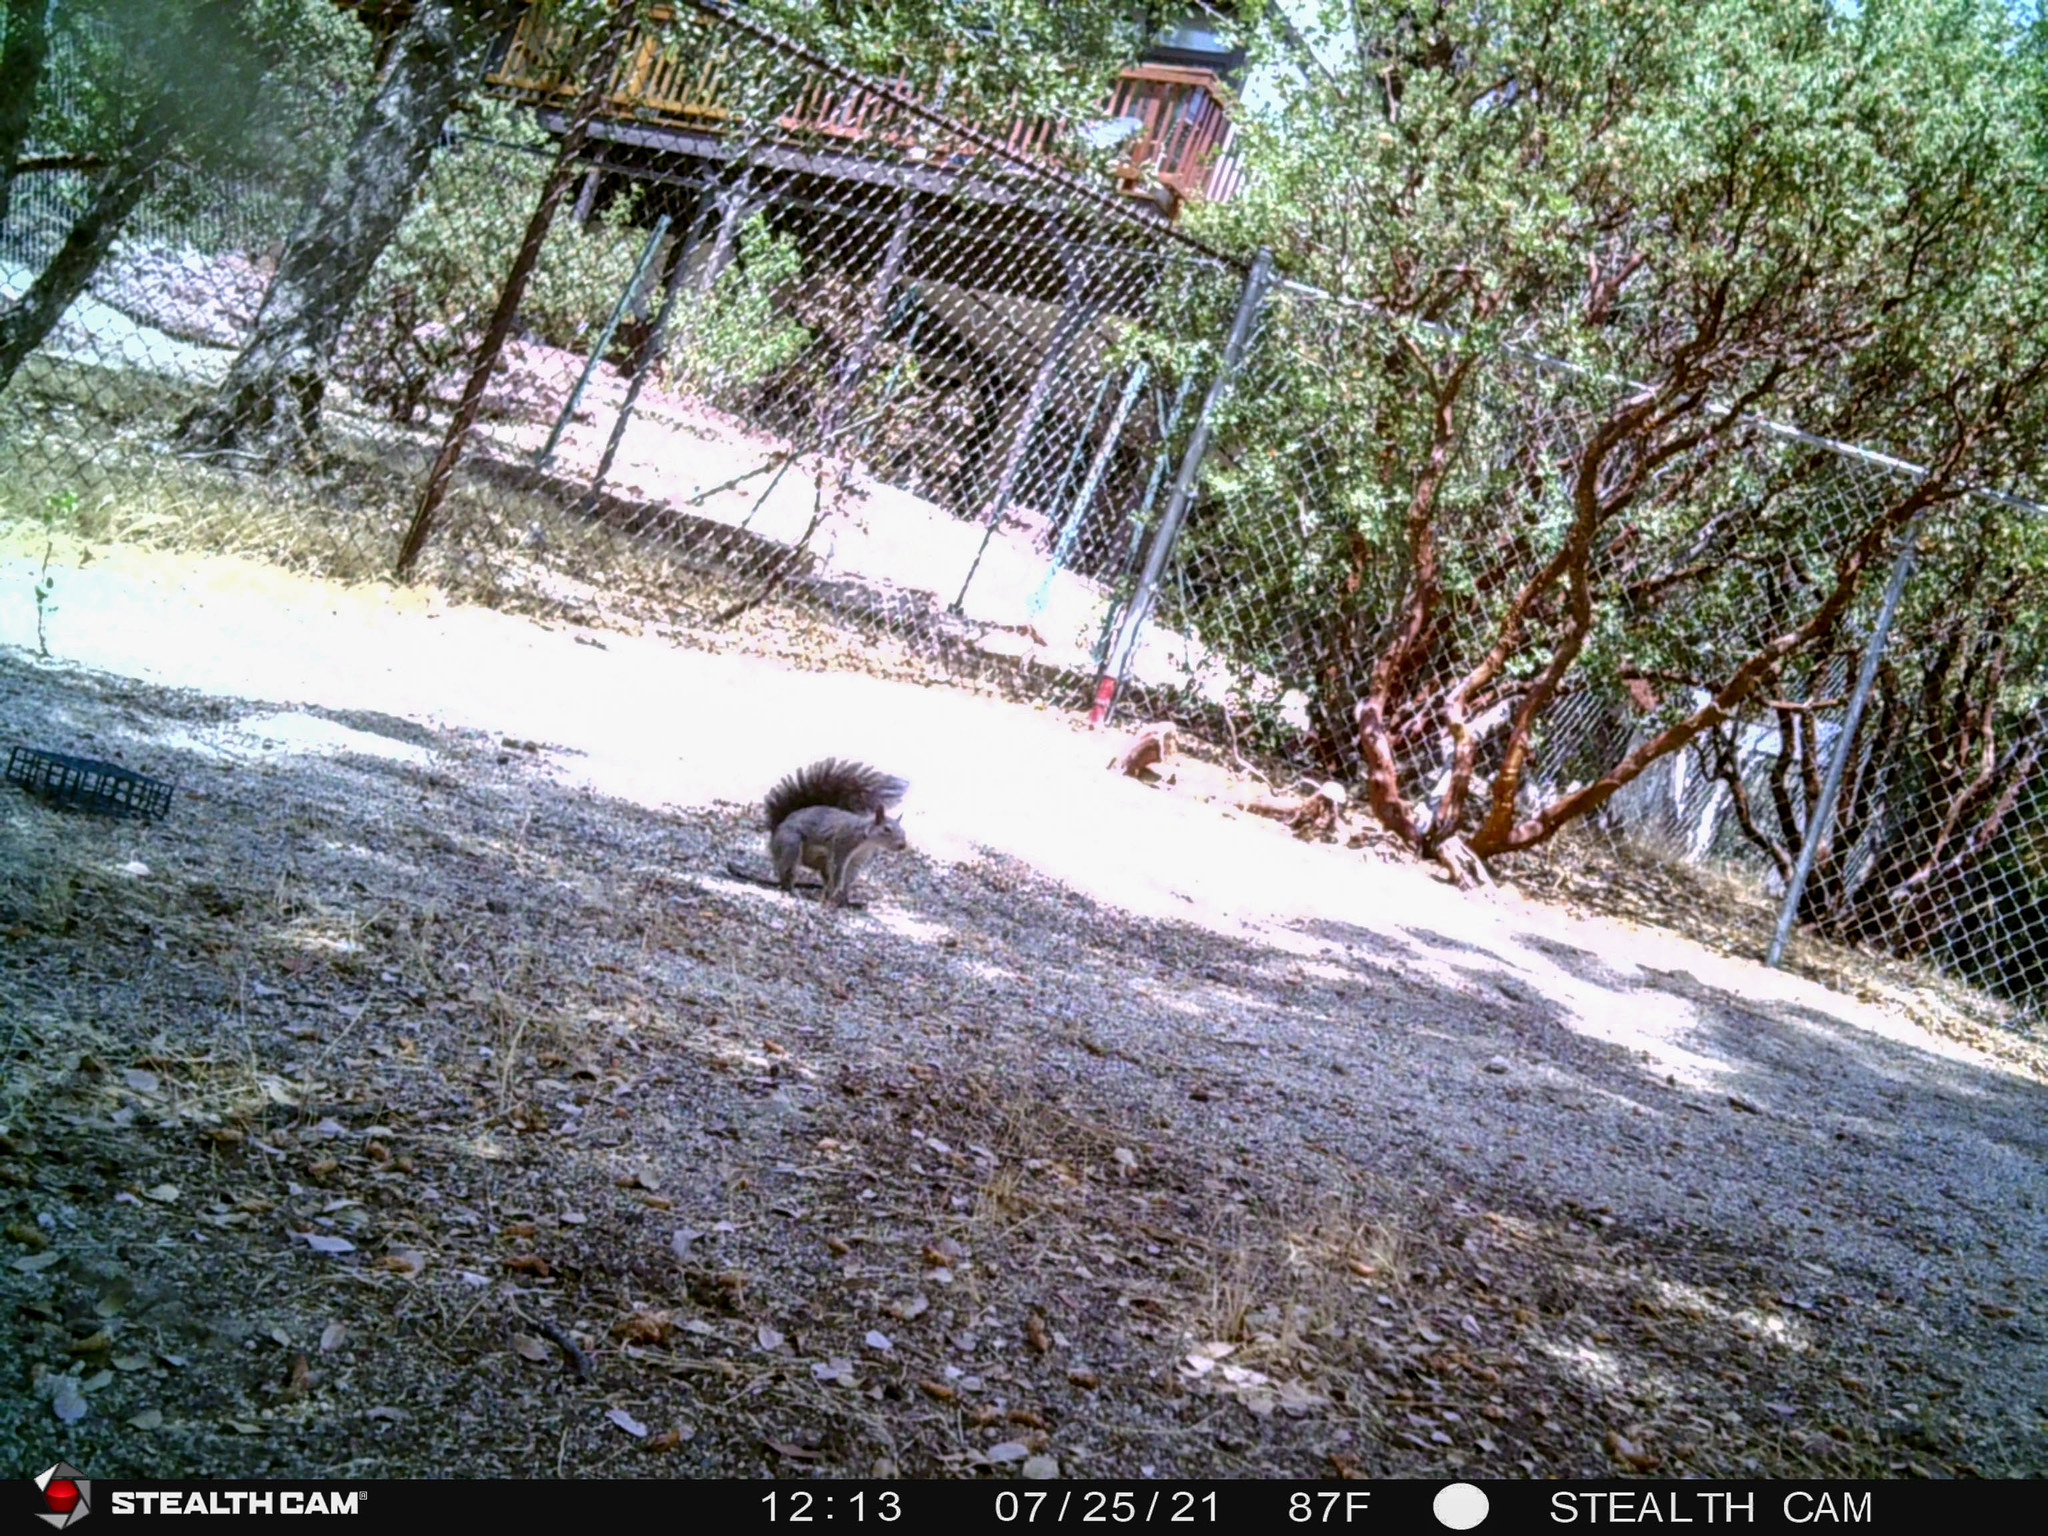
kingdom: Animalia
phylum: Chordata
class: Mammalia
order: Rodentia
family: Sciuridae
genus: Sciurus
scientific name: Sciurus griseus
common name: Western gray squirrel
